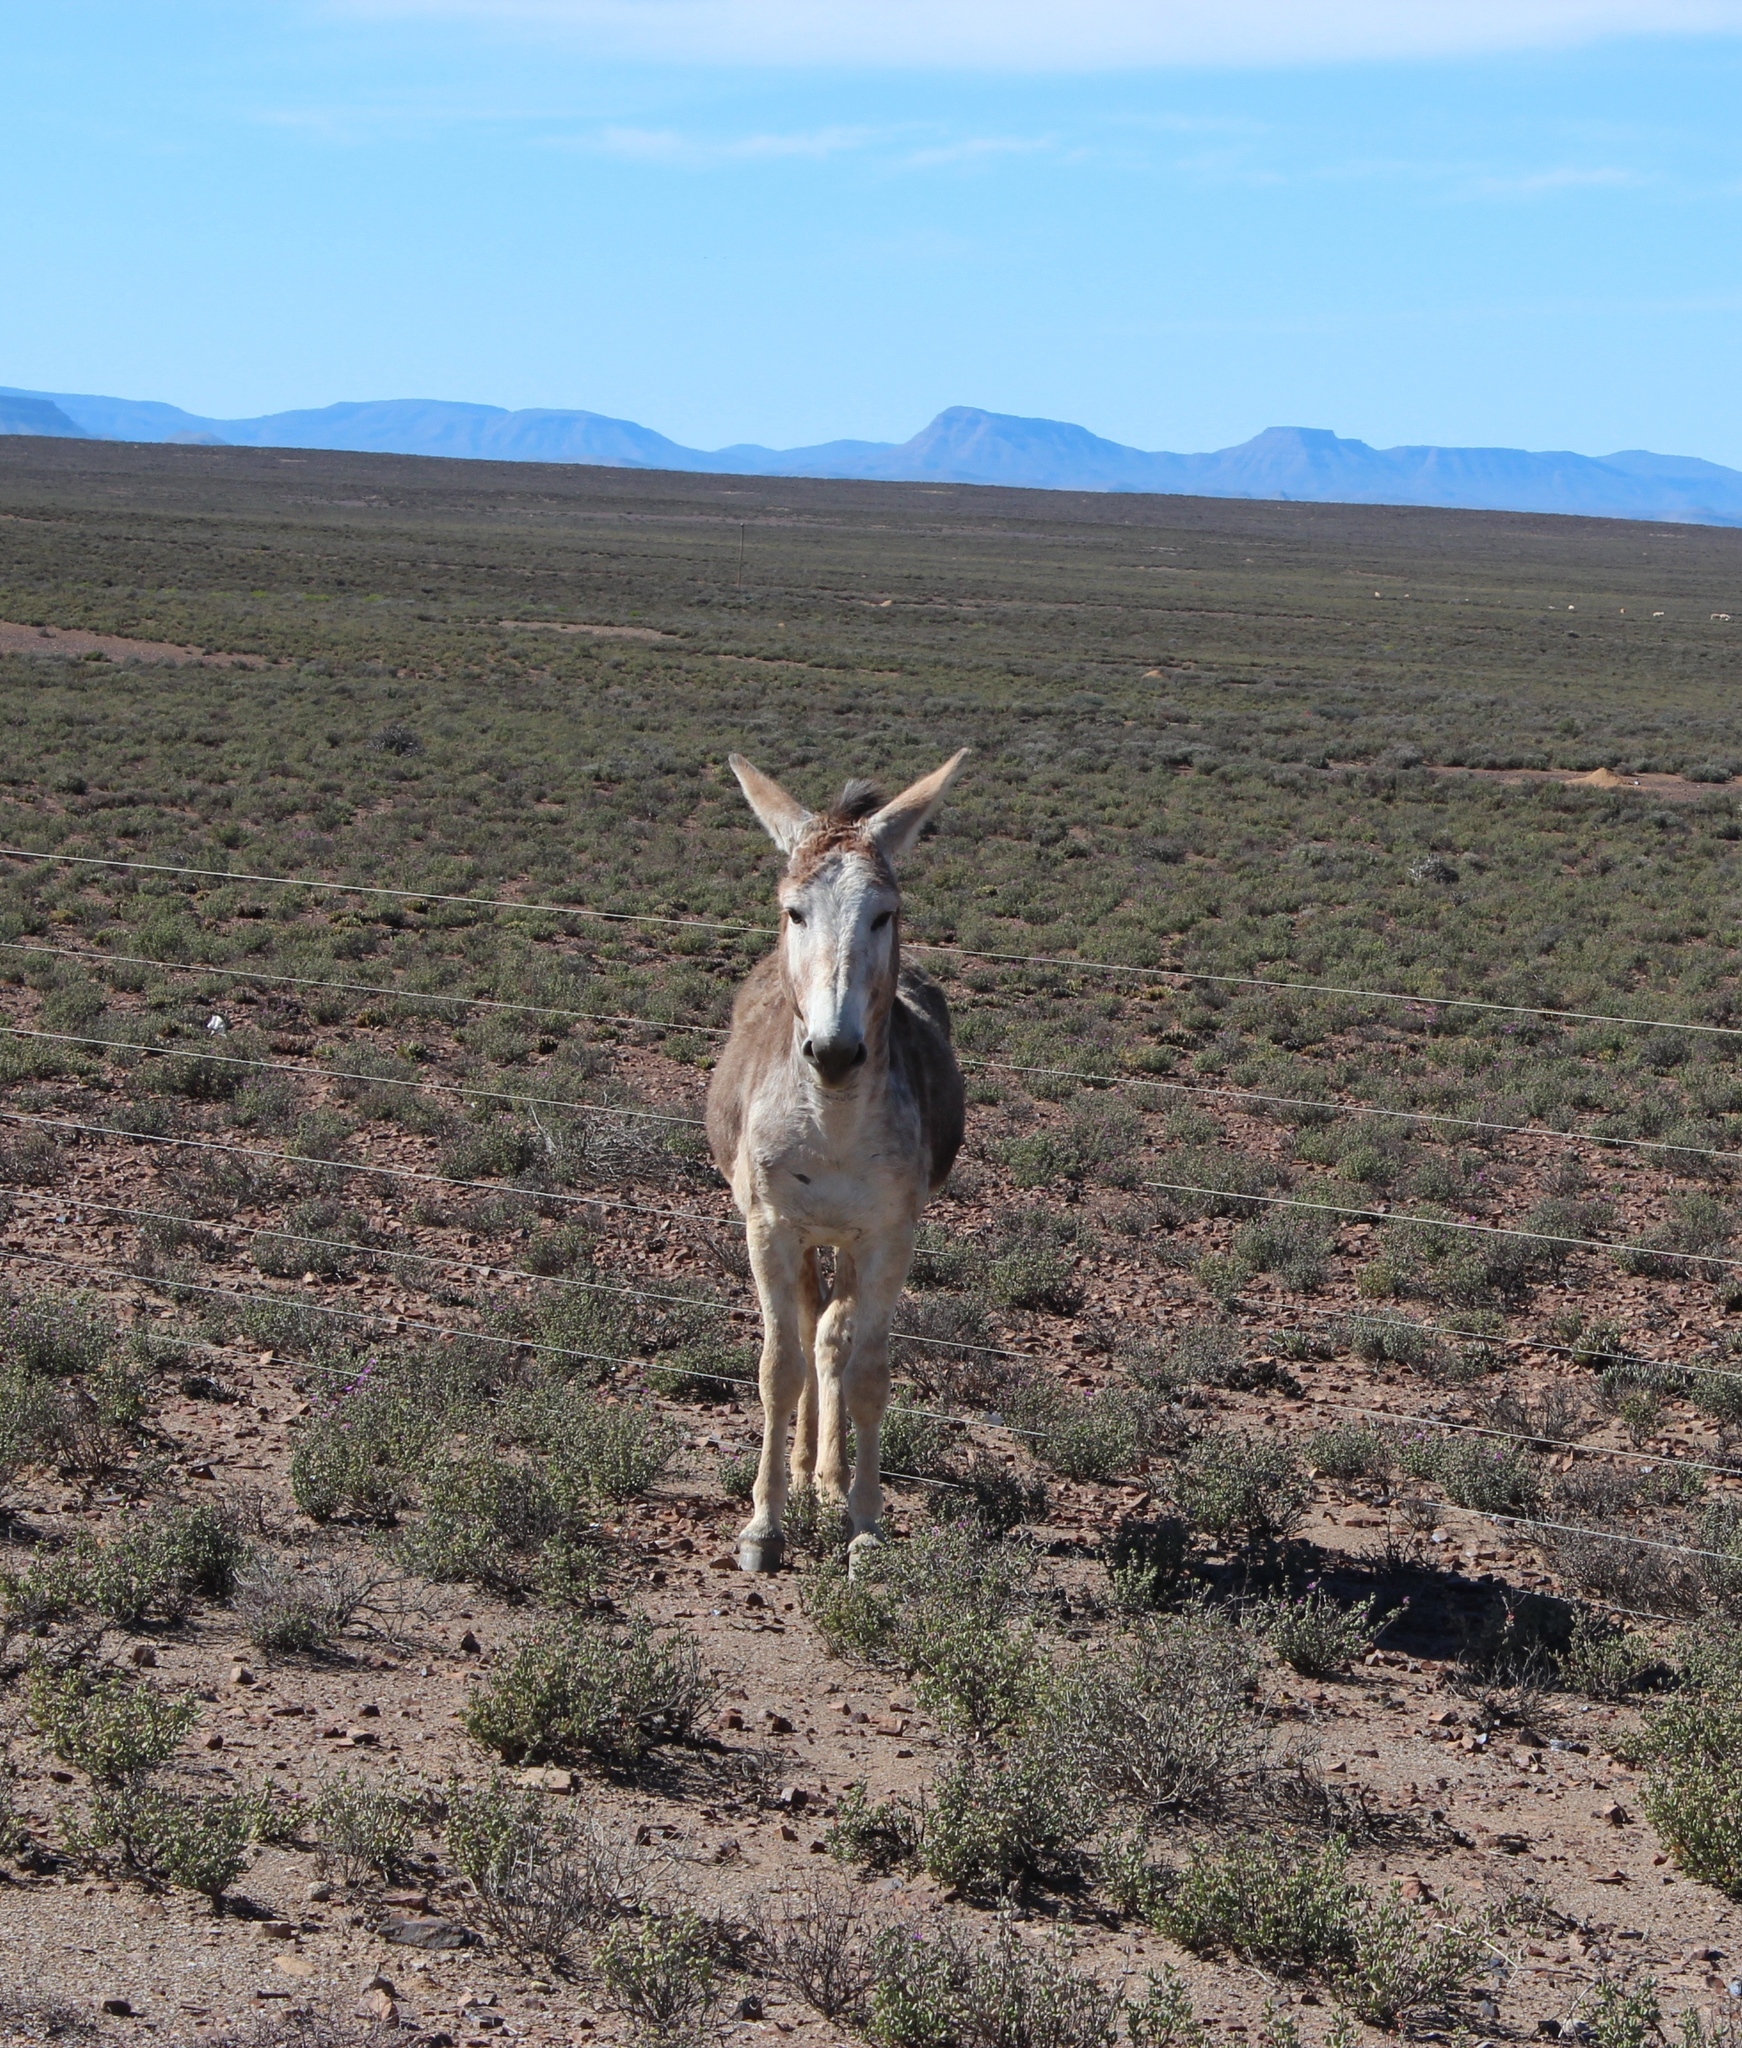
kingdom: Animalia
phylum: Chordata
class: Mammalia
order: Perissodactyla
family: Equidae
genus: Equus
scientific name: Equus asinus
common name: Ass
